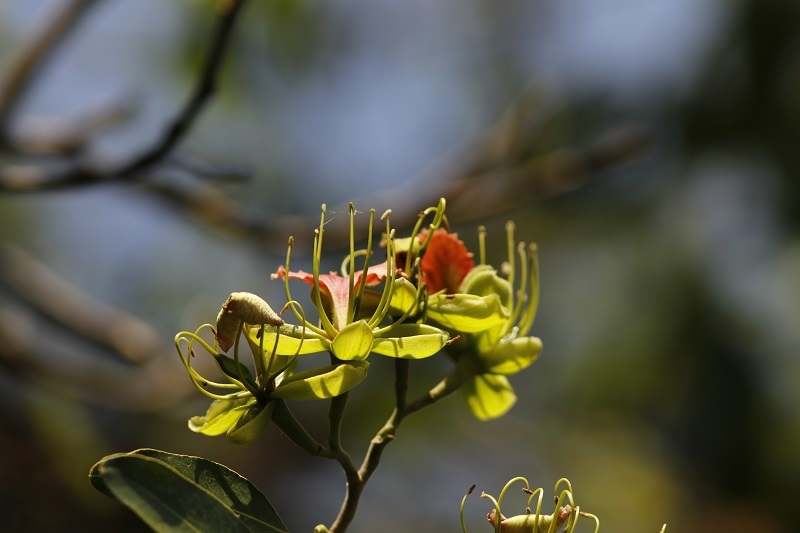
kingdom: Plantae
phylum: Tracheophyta
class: Magnoliopsida
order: Fabales
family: Fabaceae
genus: Afzelia
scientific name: Afzelia quanzensis
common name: Pod mahogany
